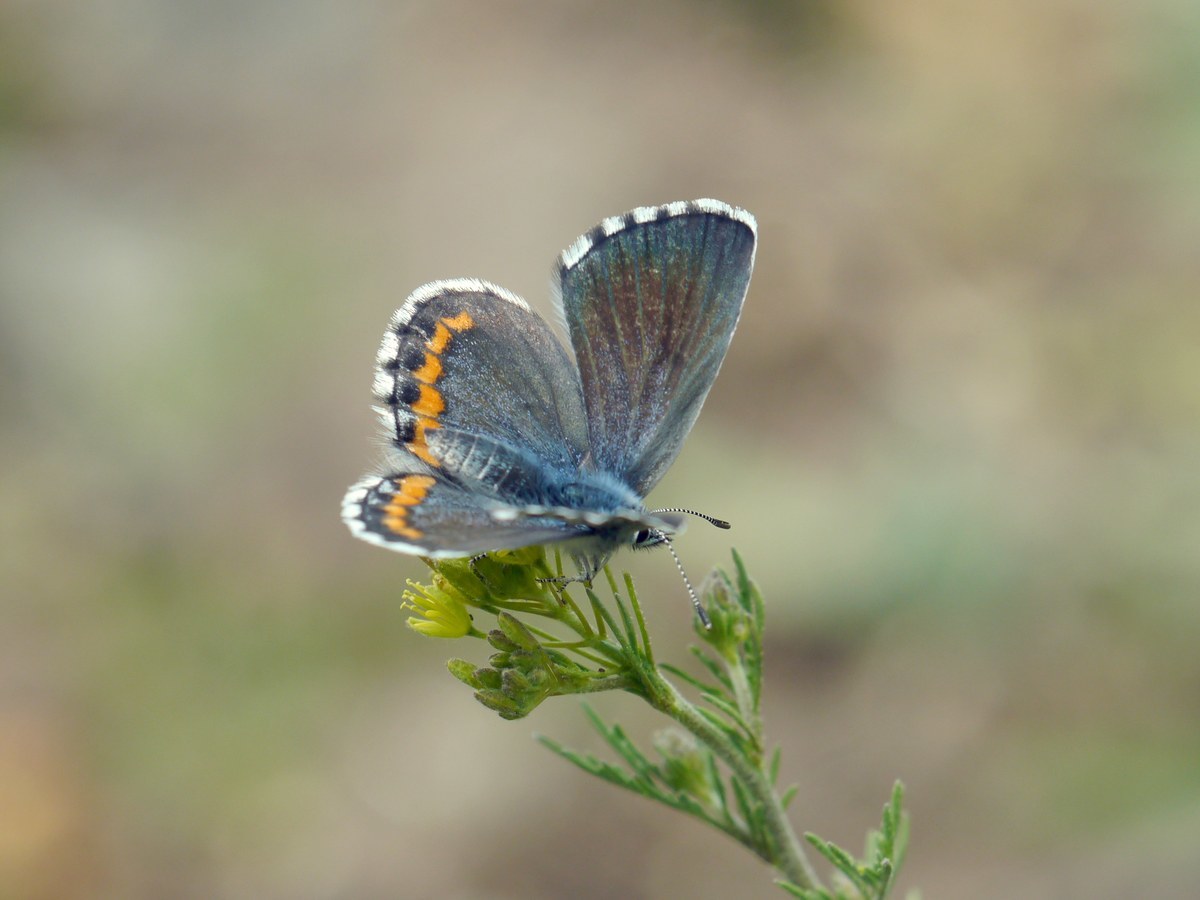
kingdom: Animalia
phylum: Arthropoda
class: Insecta
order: Lepidoptera
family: Lycaenidae
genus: Pseudophilotes
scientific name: Pseudophilotes bavius
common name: Bavius blue
